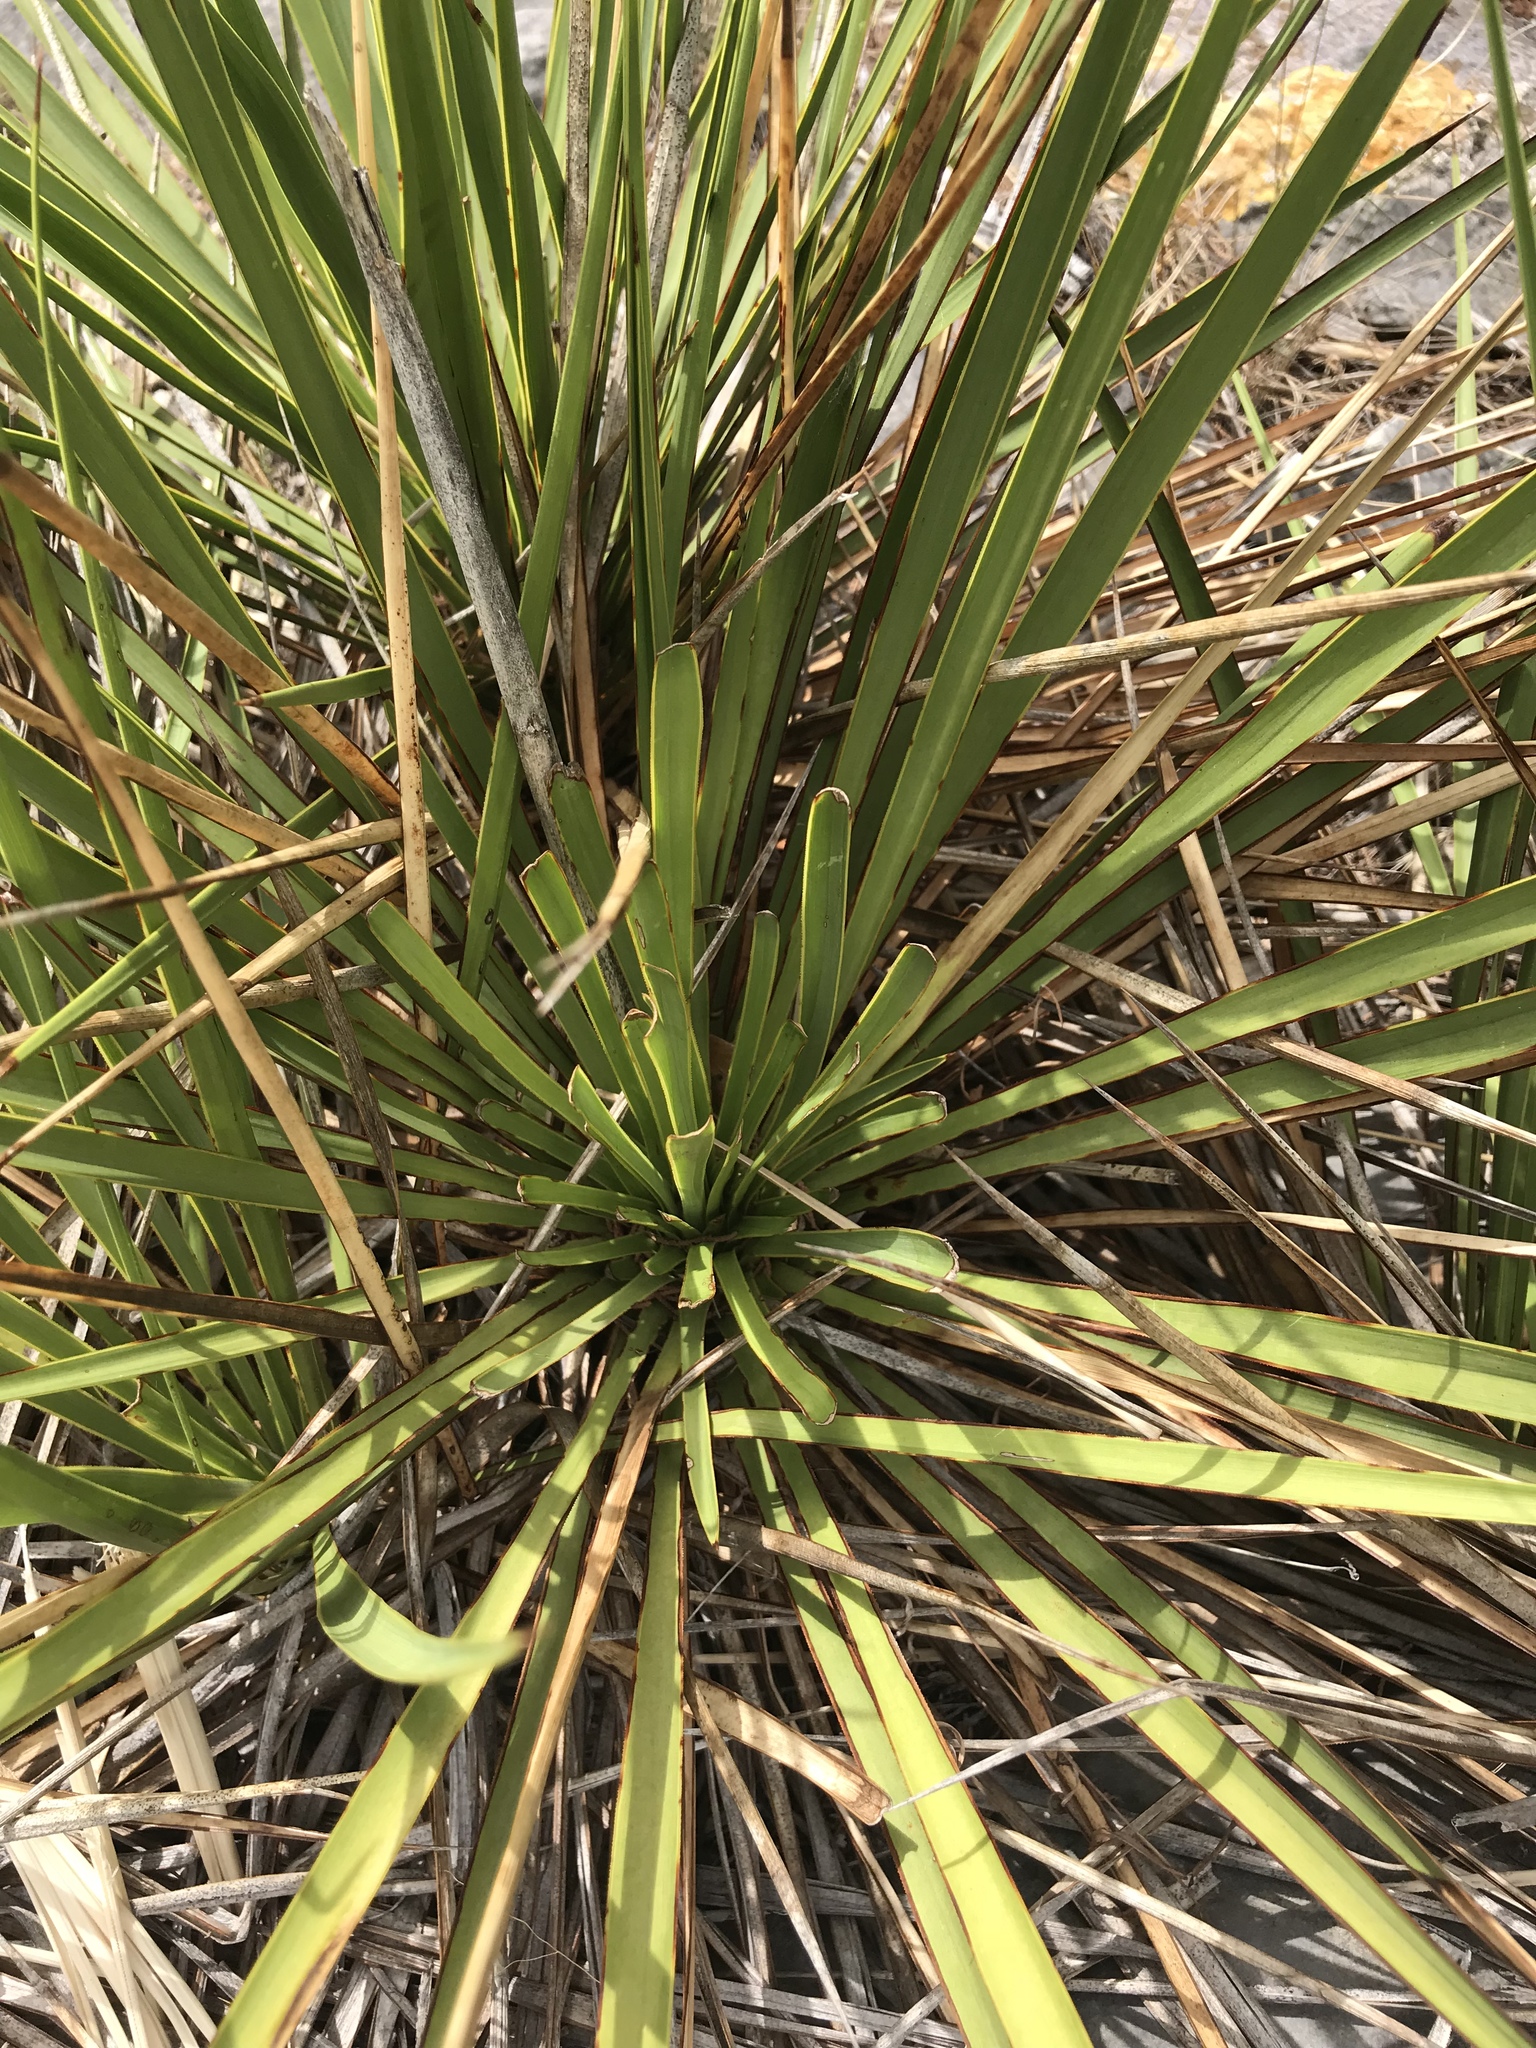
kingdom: Plantae
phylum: Tracheophyta
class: Liliopsida
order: Asparagales
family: Asparagaceae
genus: Yucca
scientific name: Yucca reverchonii
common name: San angelo yucca
